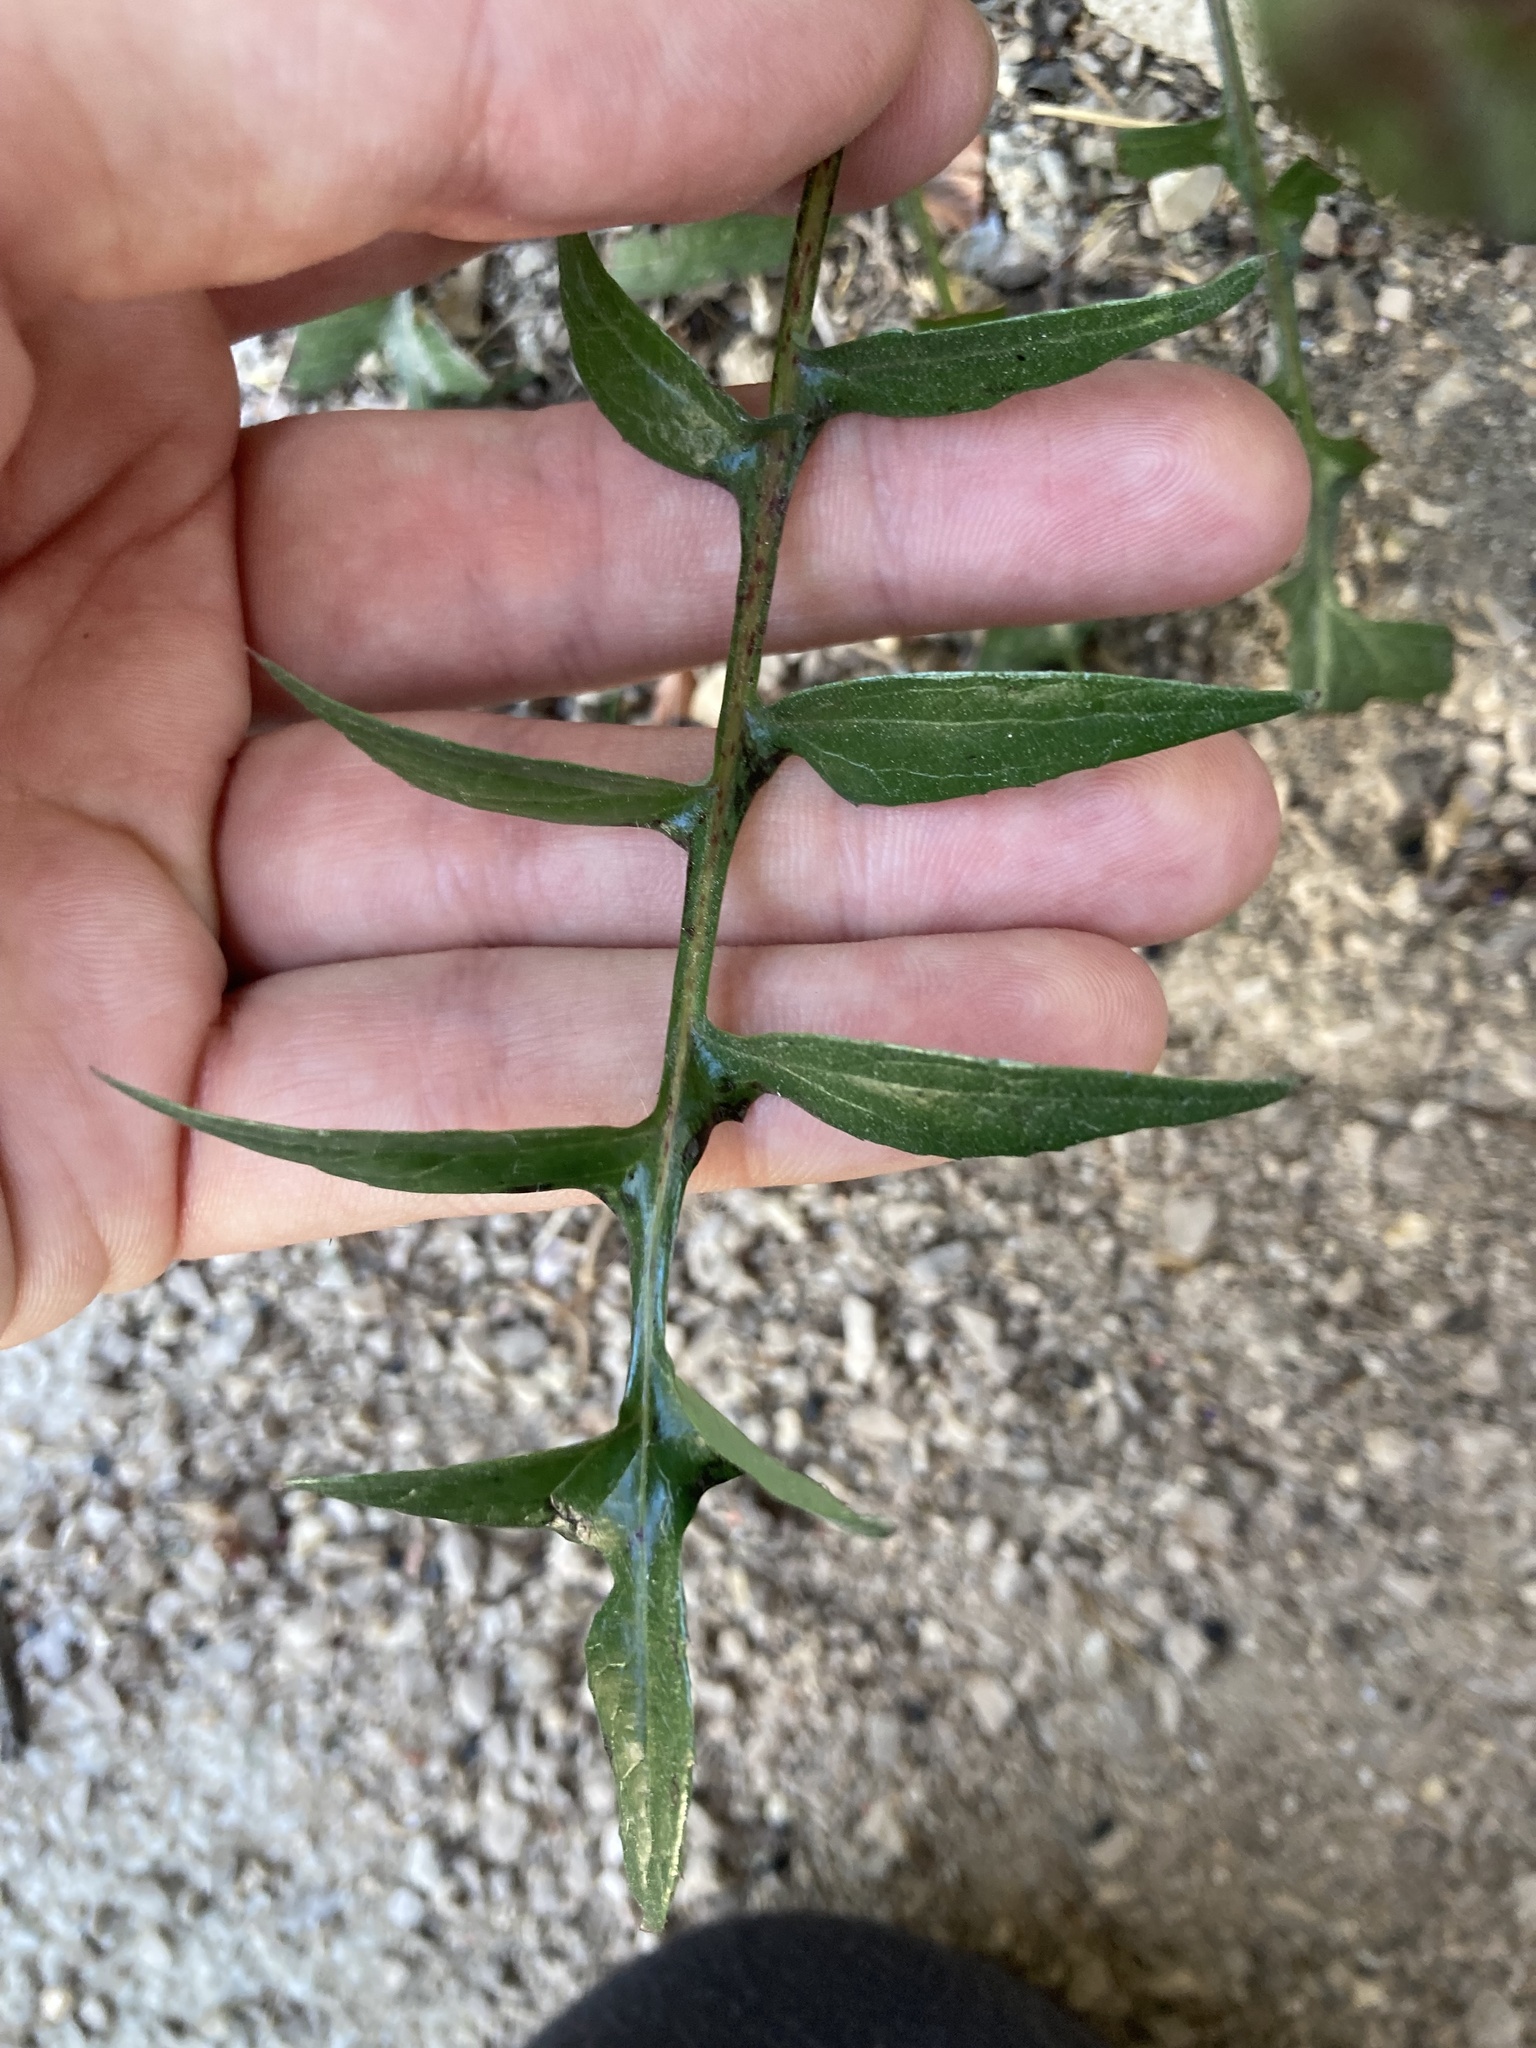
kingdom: Plantae
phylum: Tracheophyta
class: Magnoliopsida
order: Asterales
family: Asteraceae
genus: Sonchus
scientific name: Sonchus tenerrimus
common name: Clammy sowthistle
